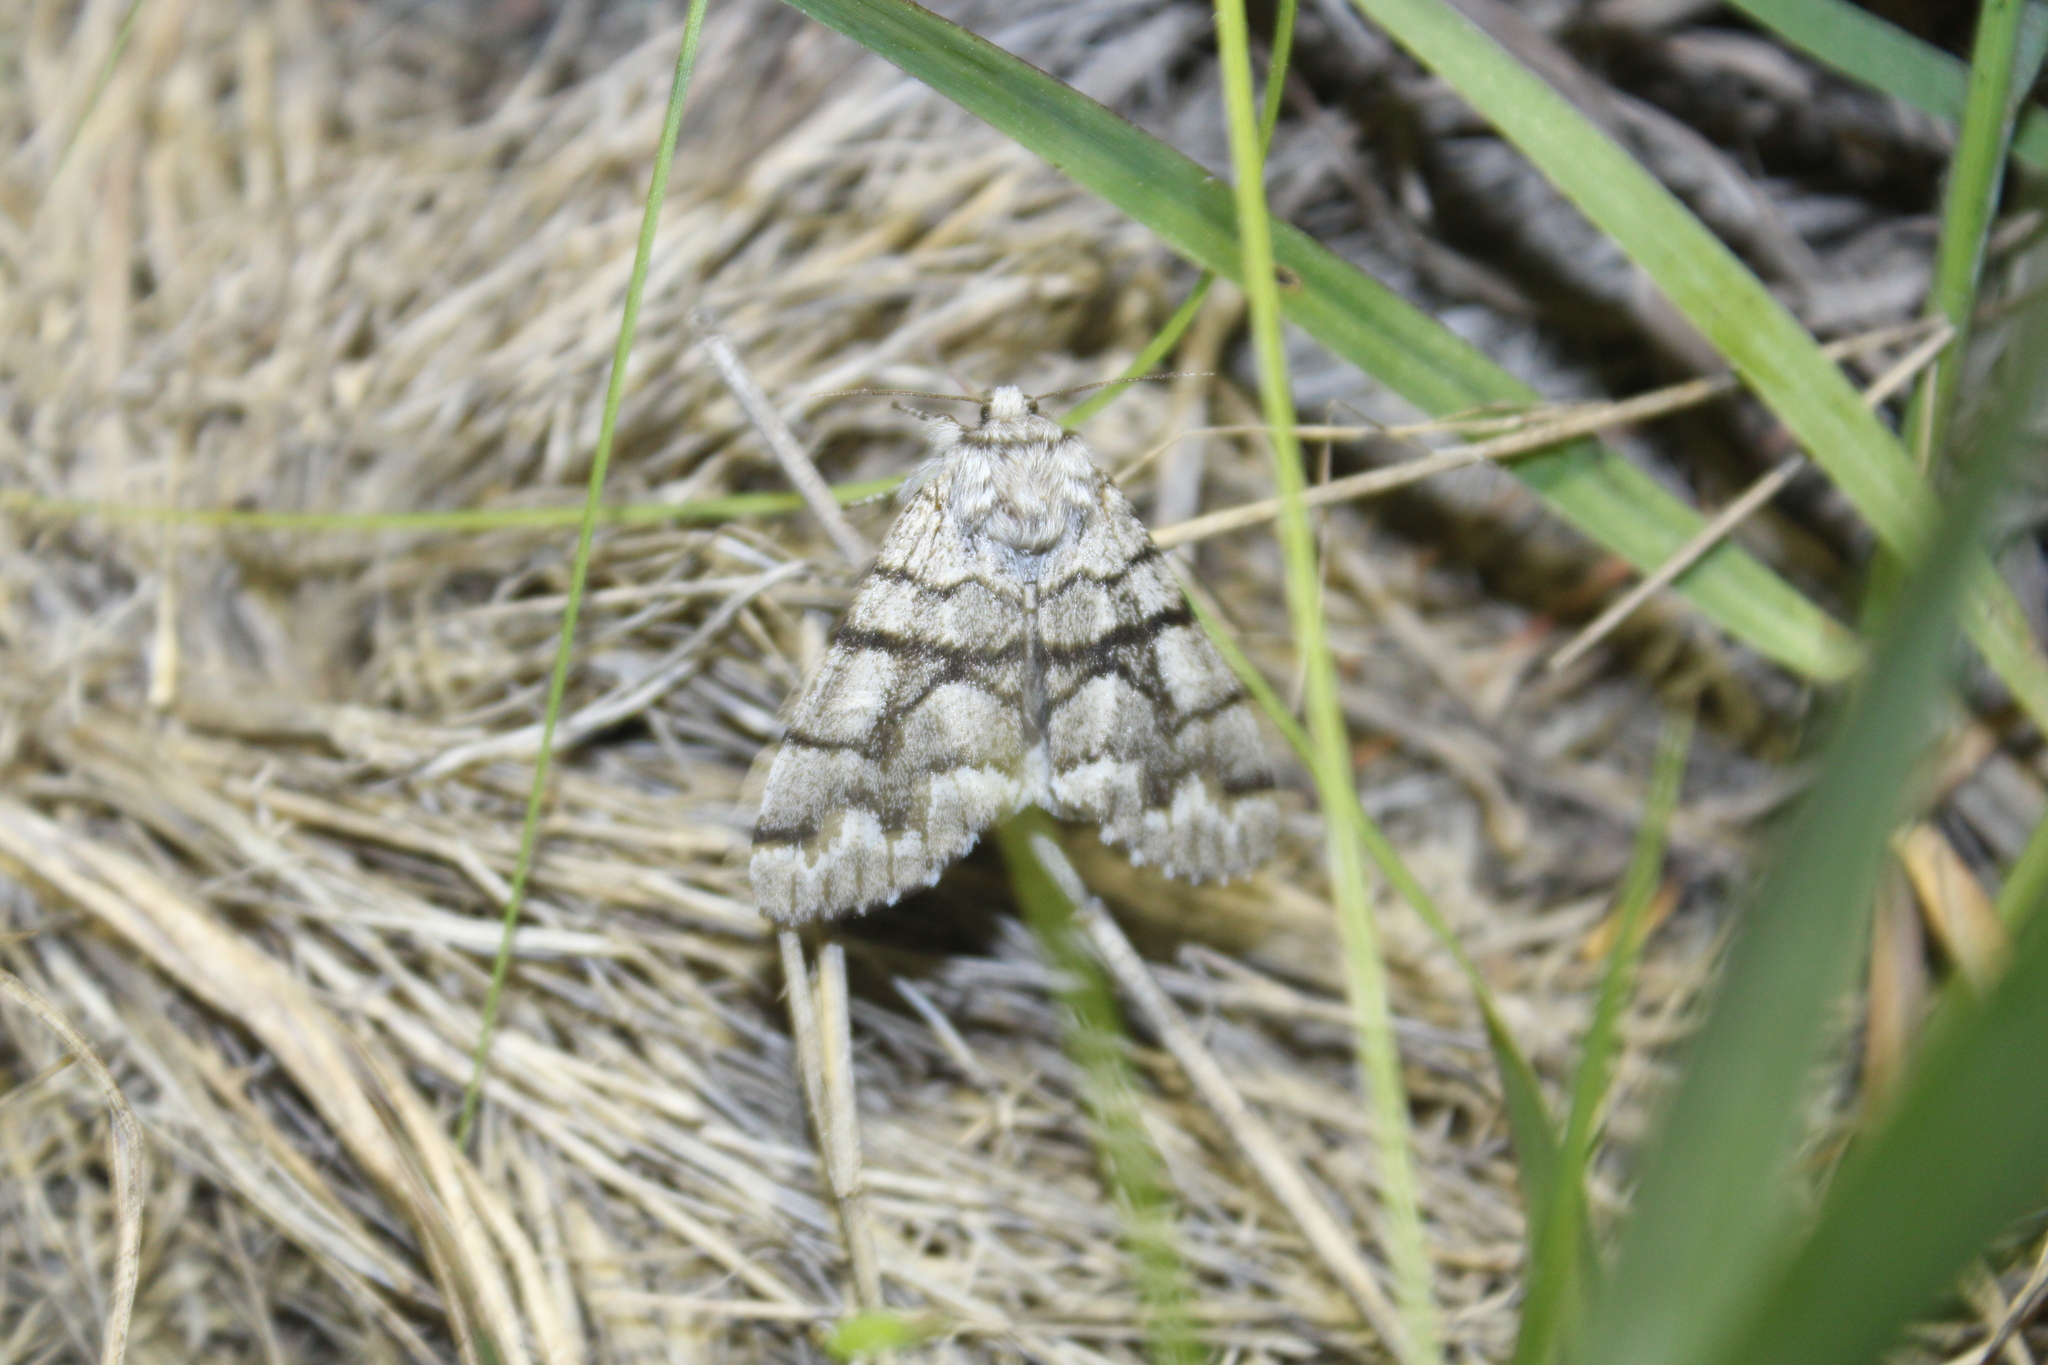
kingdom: Animalia
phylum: Arthropoda
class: Insecta
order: Lepidoptera
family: Noctuidae
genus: Panthea
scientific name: Panthea furcilla
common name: Eastern panthea moth
